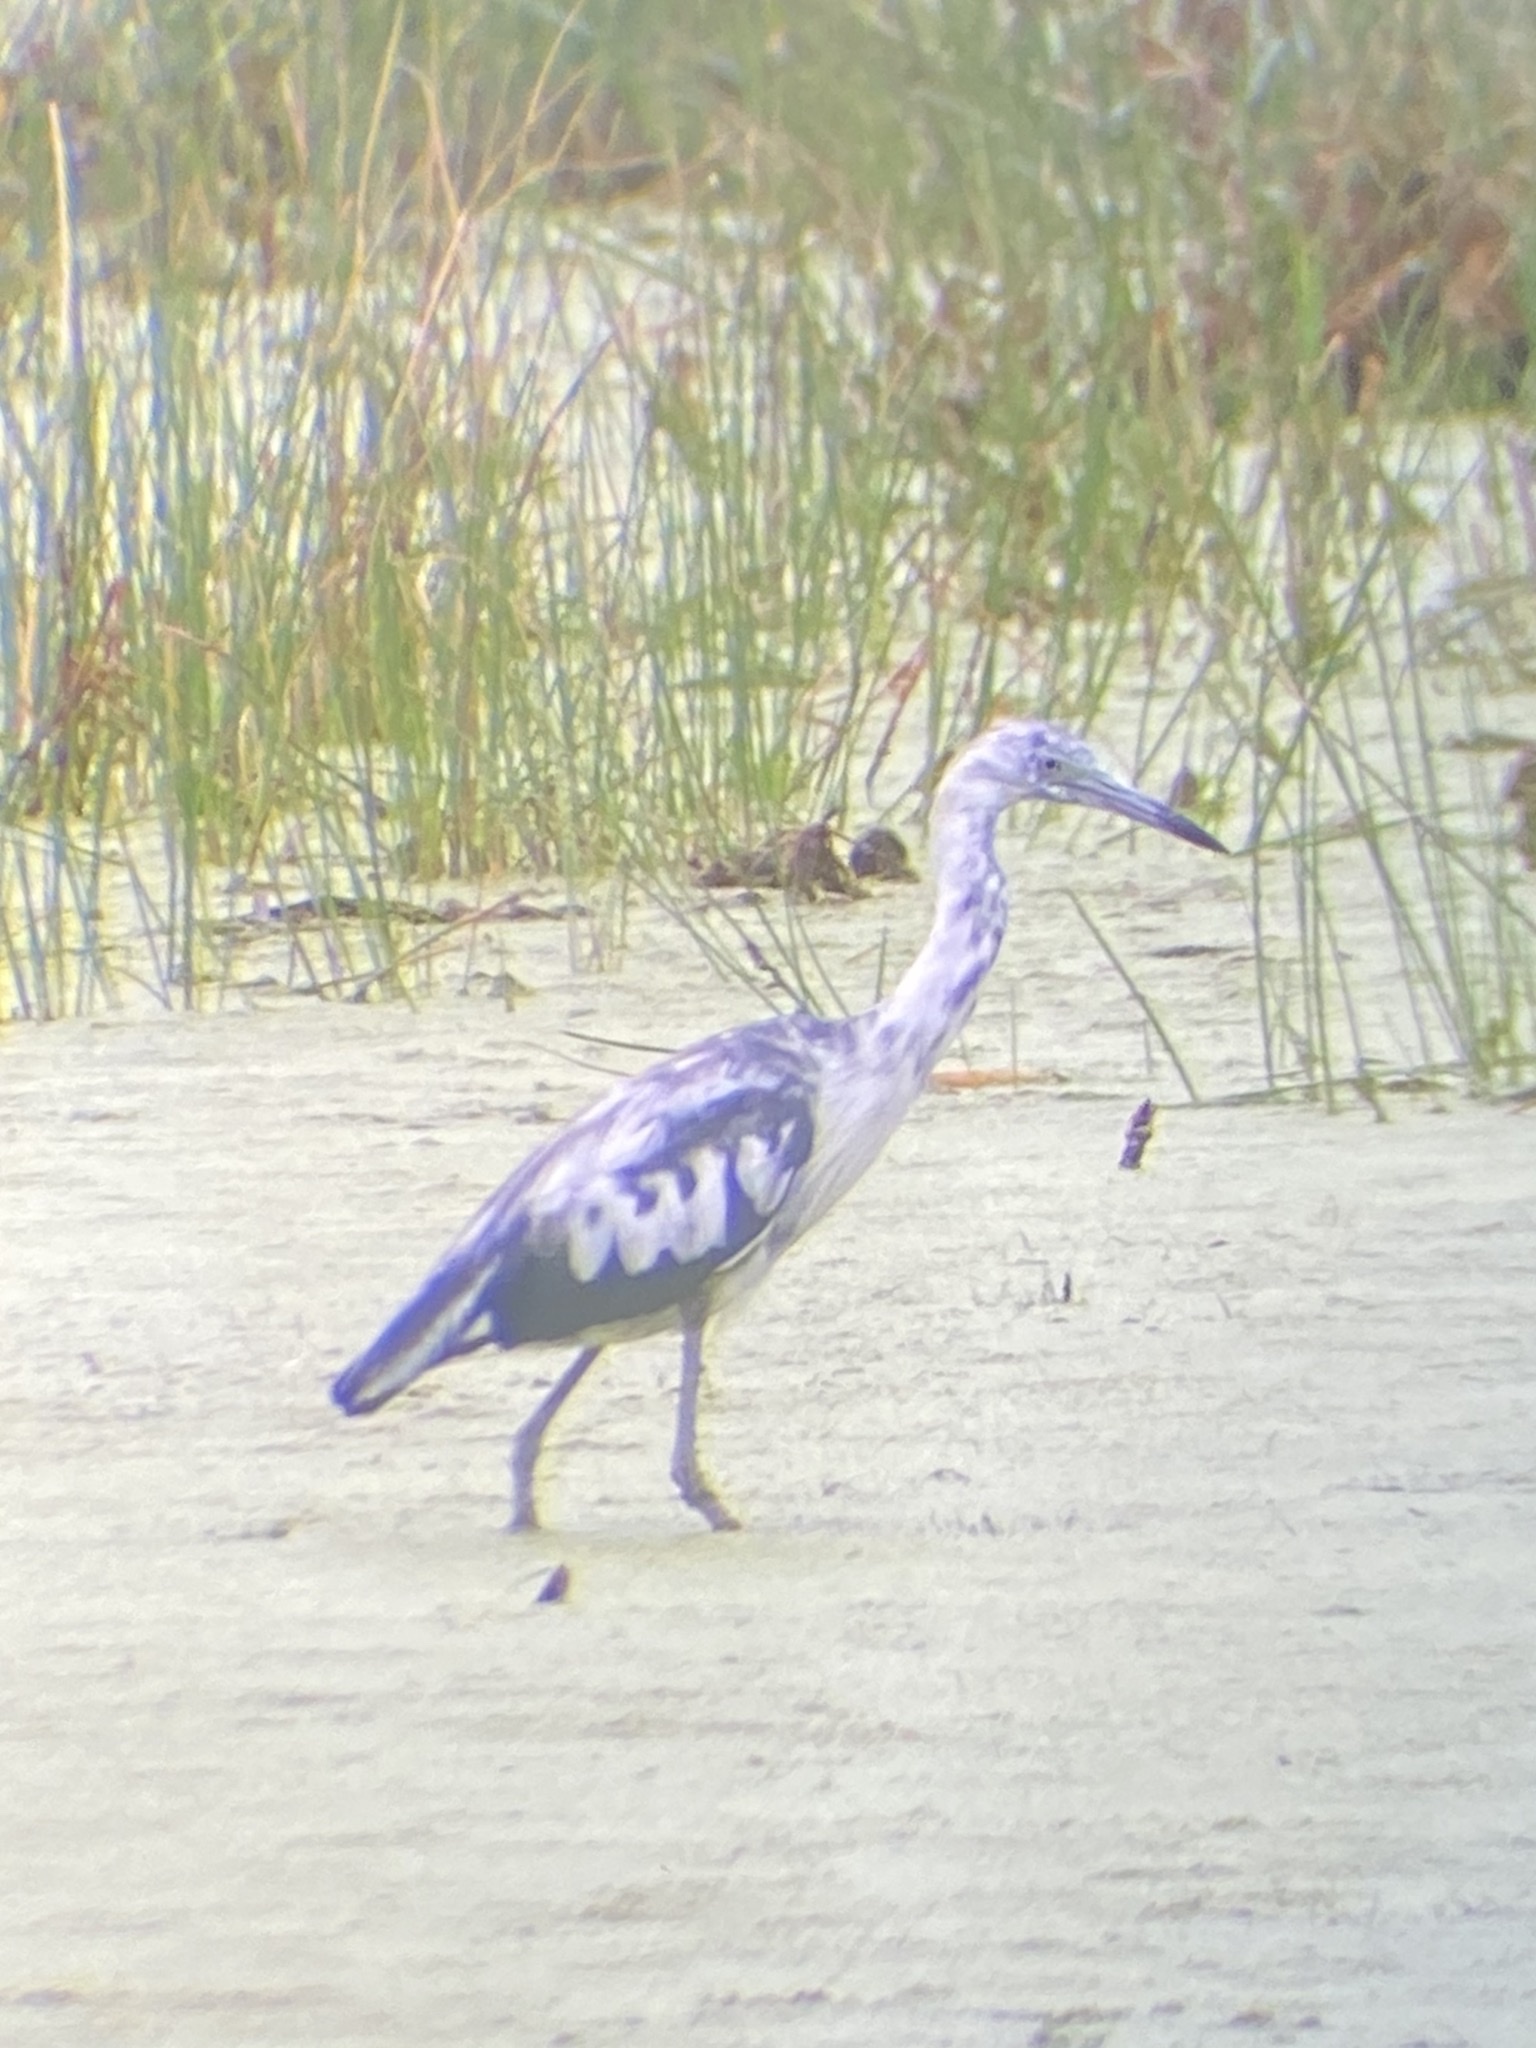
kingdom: Animalia
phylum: Chordata
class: Aves
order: Pelecaniformes
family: Ardeidae
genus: Egretta
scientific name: Egretta caerulea
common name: Little blue heron
